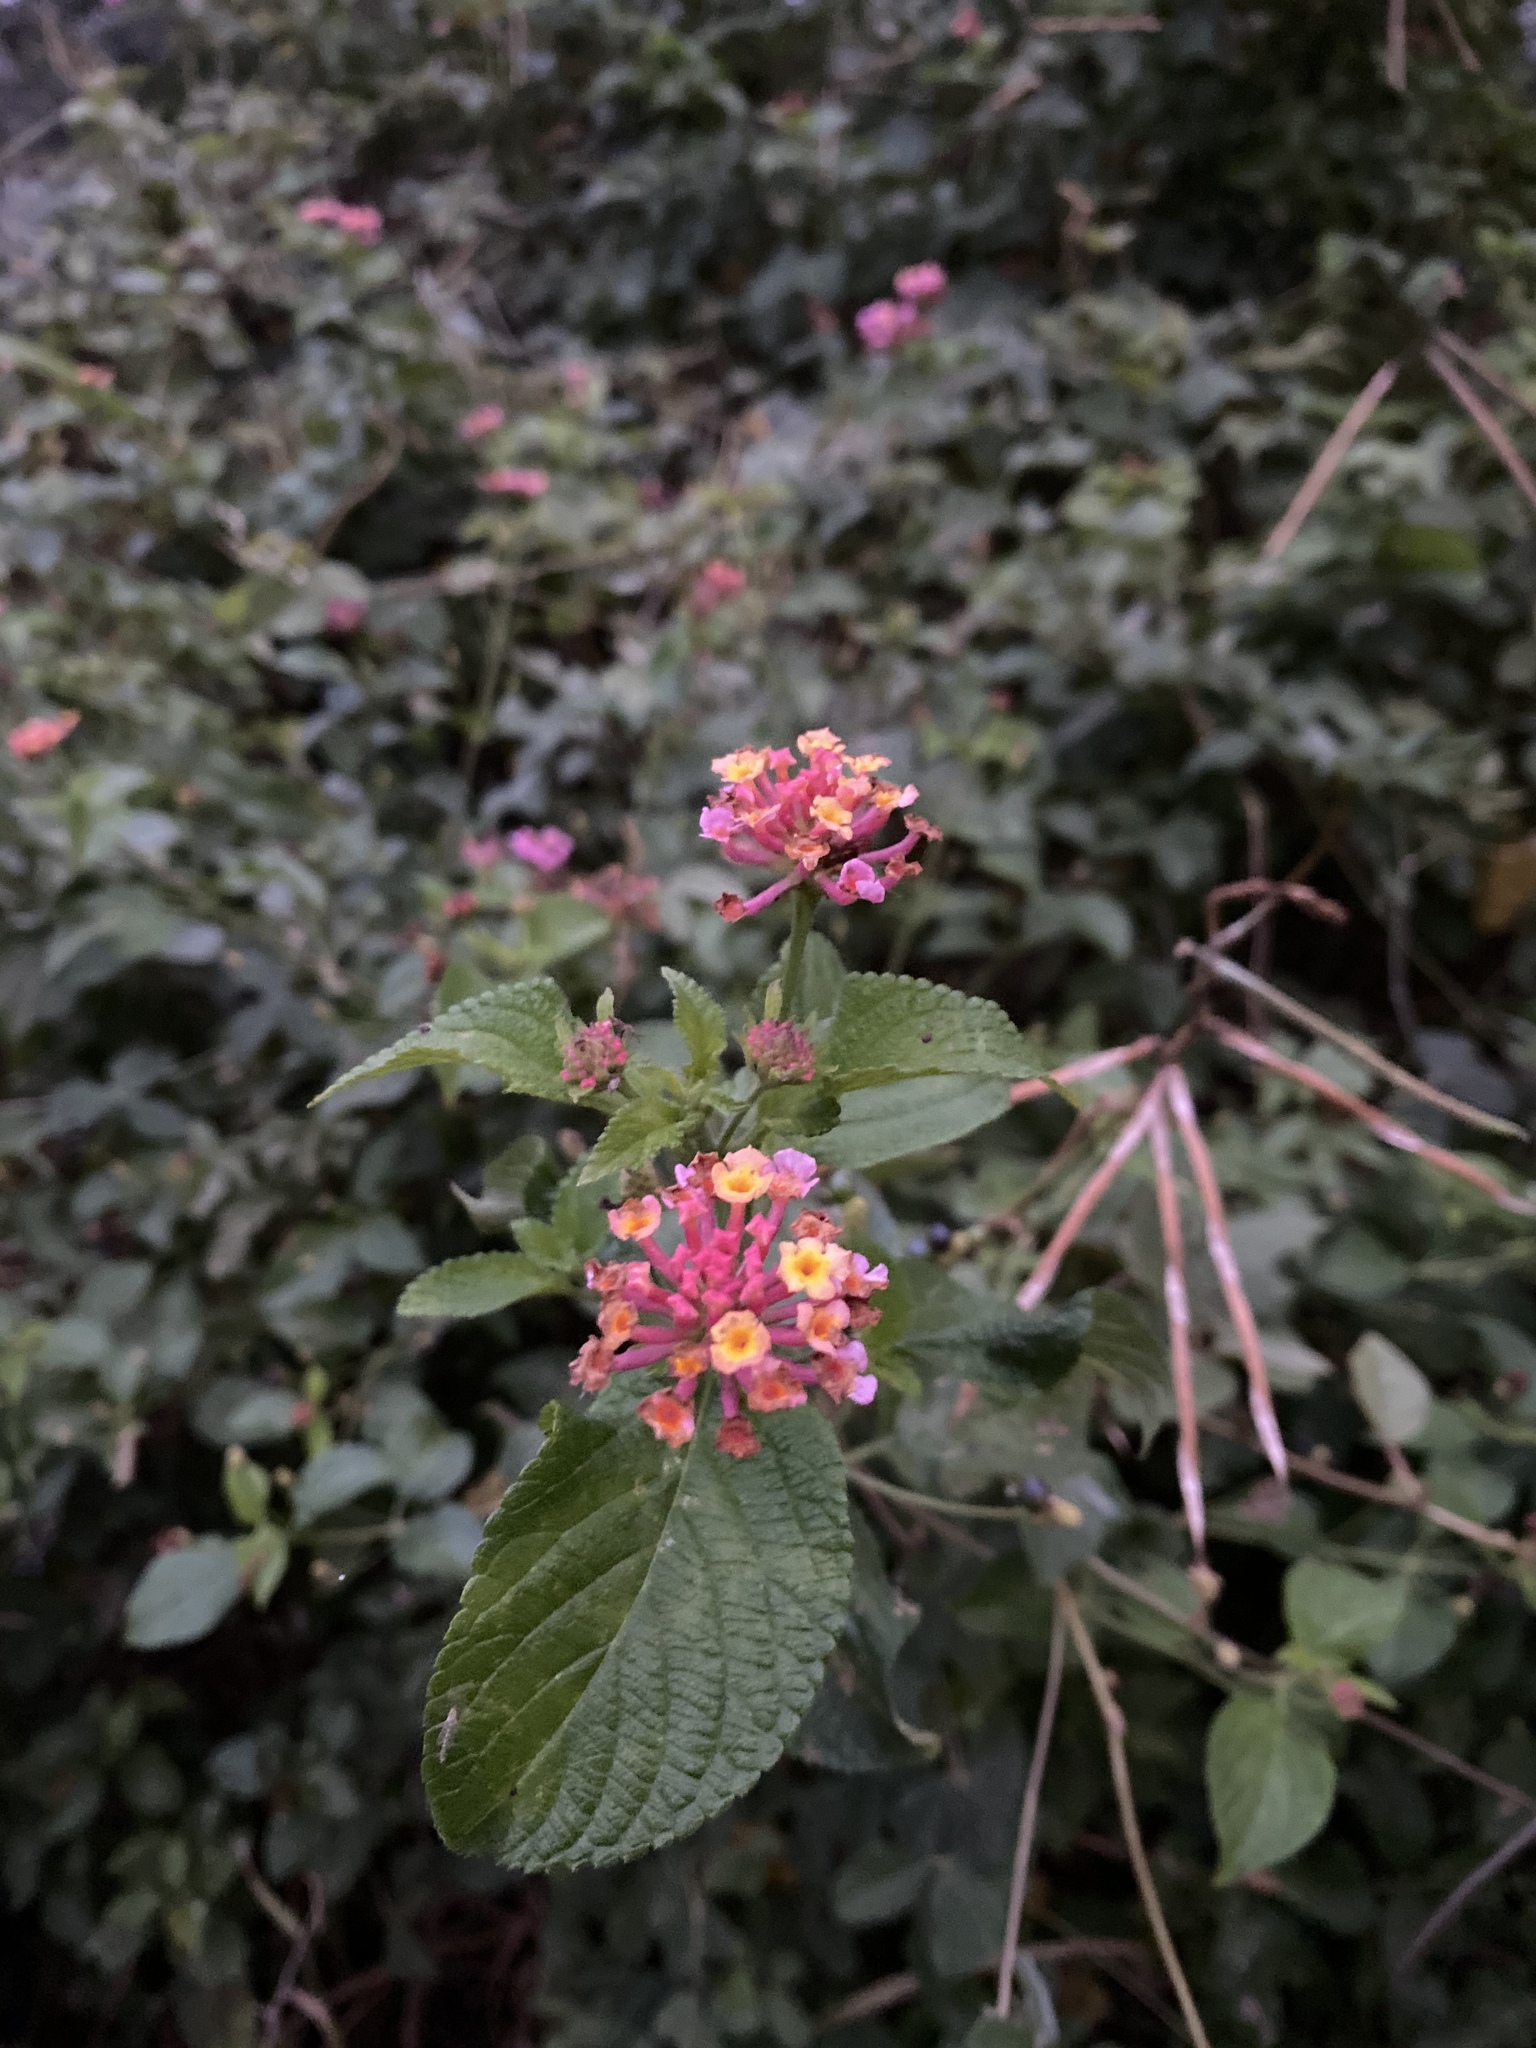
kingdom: Plantae
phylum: Tracheophyta
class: Magnoliopsida
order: Lamiales
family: Verbenaceae
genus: Lantana
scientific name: Lantana camara
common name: Lantana
